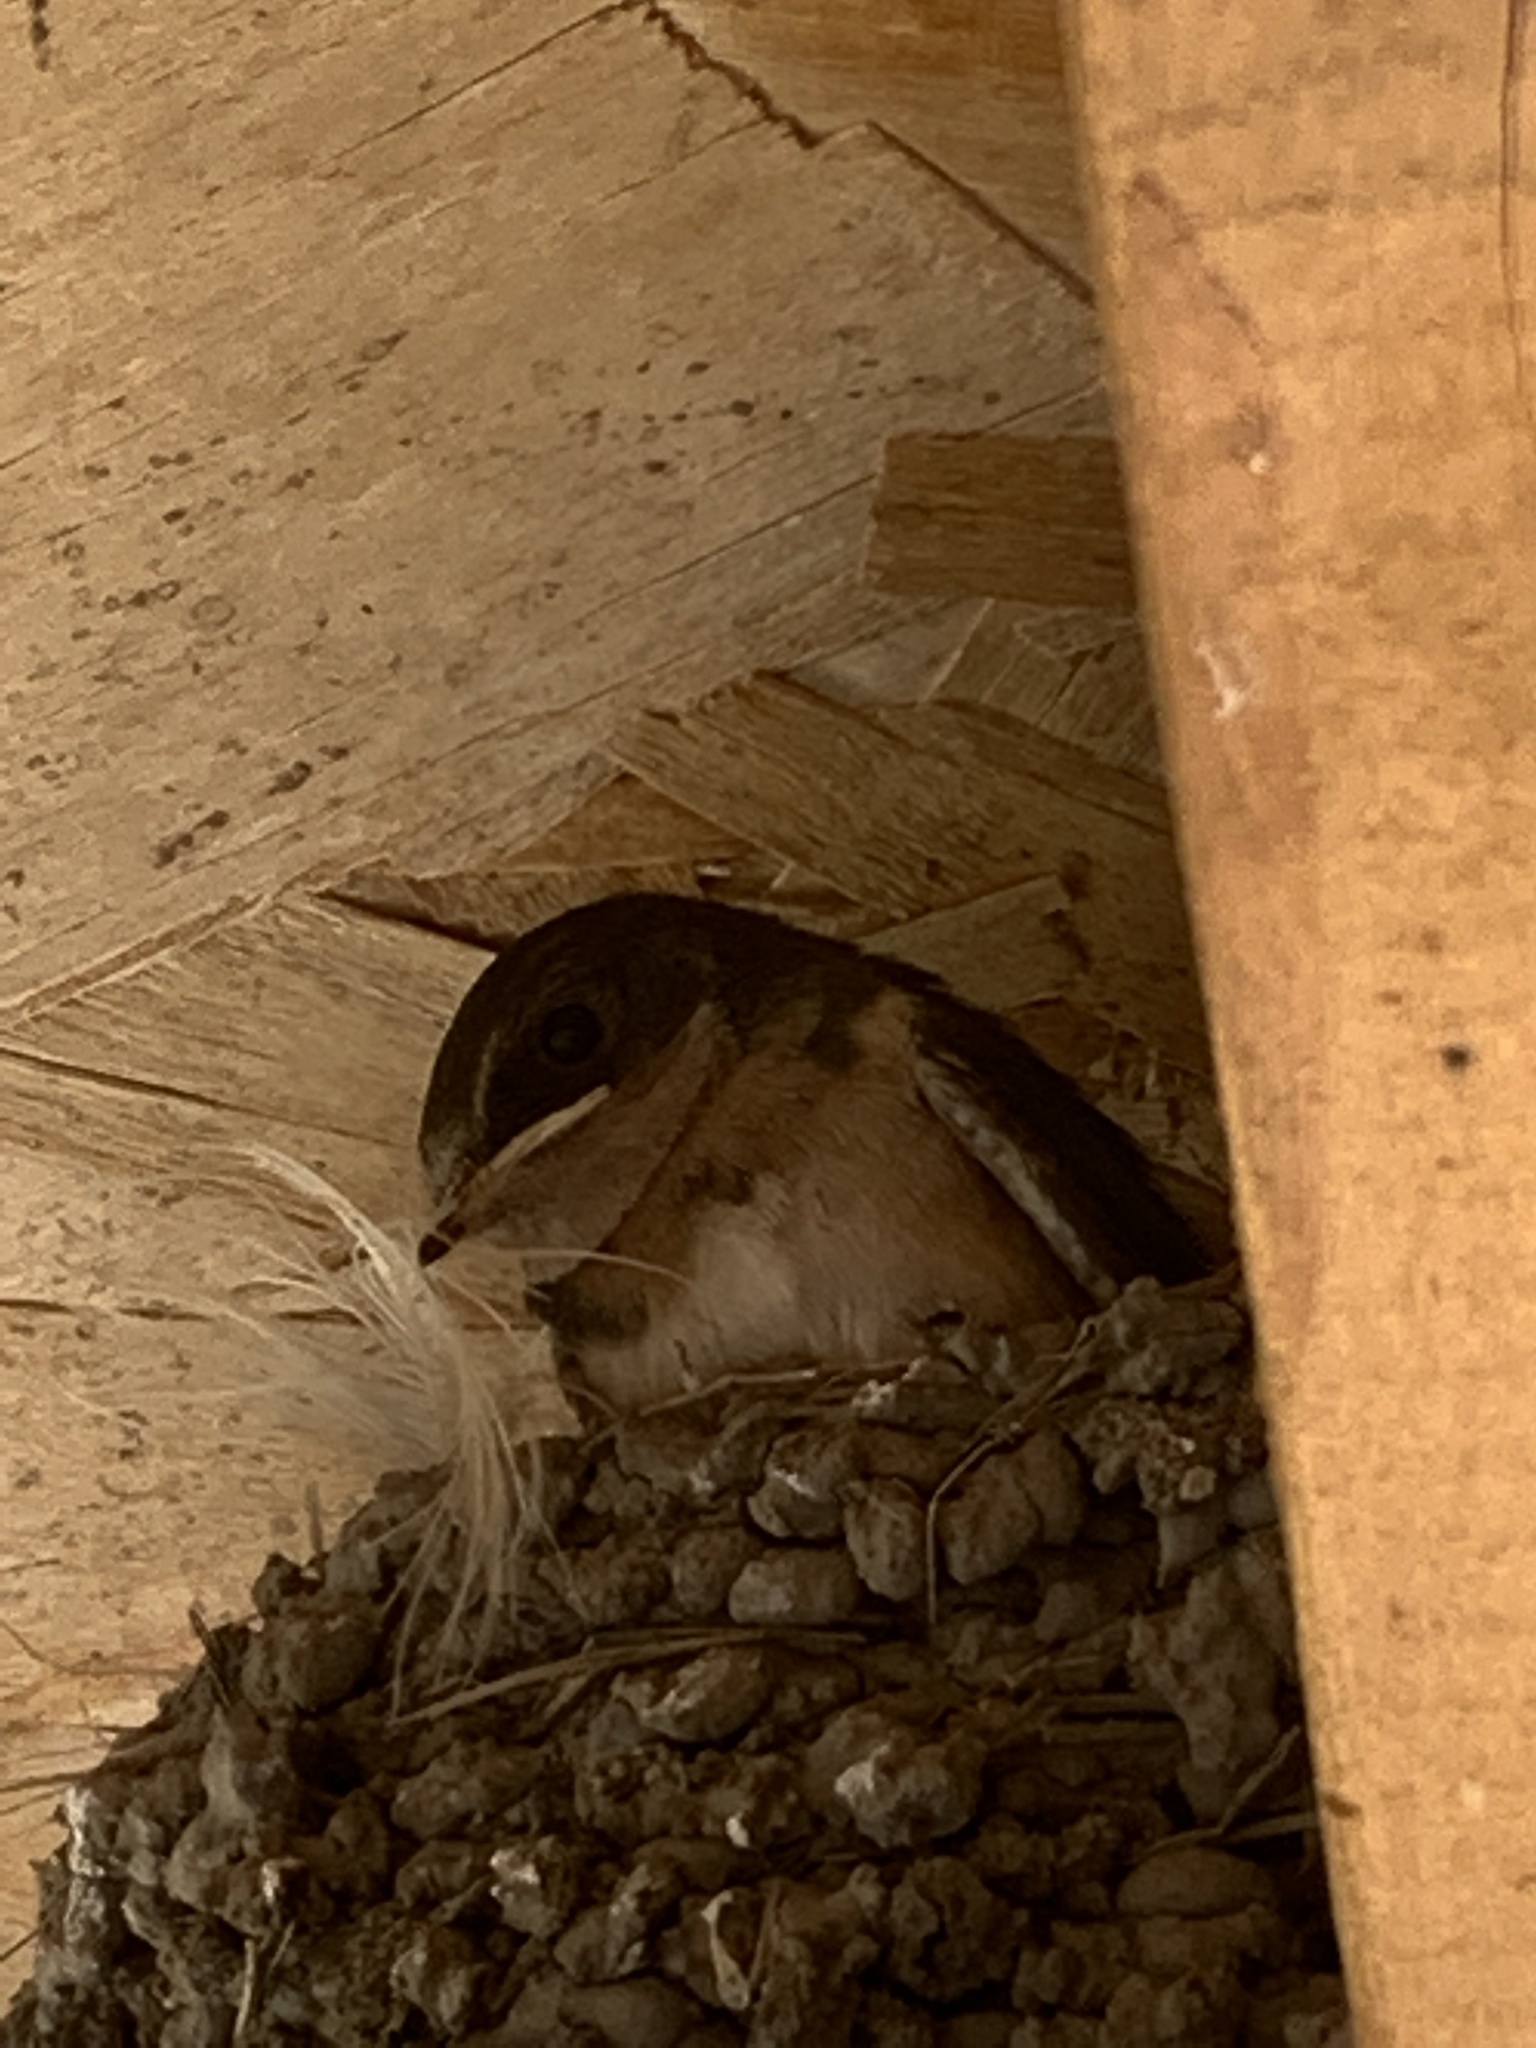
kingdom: Animalia
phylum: Chordata
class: Aves
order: Passeriformes
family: Hirundinidae
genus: Hirundo
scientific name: Hirundo rustica
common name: Barn swallow
